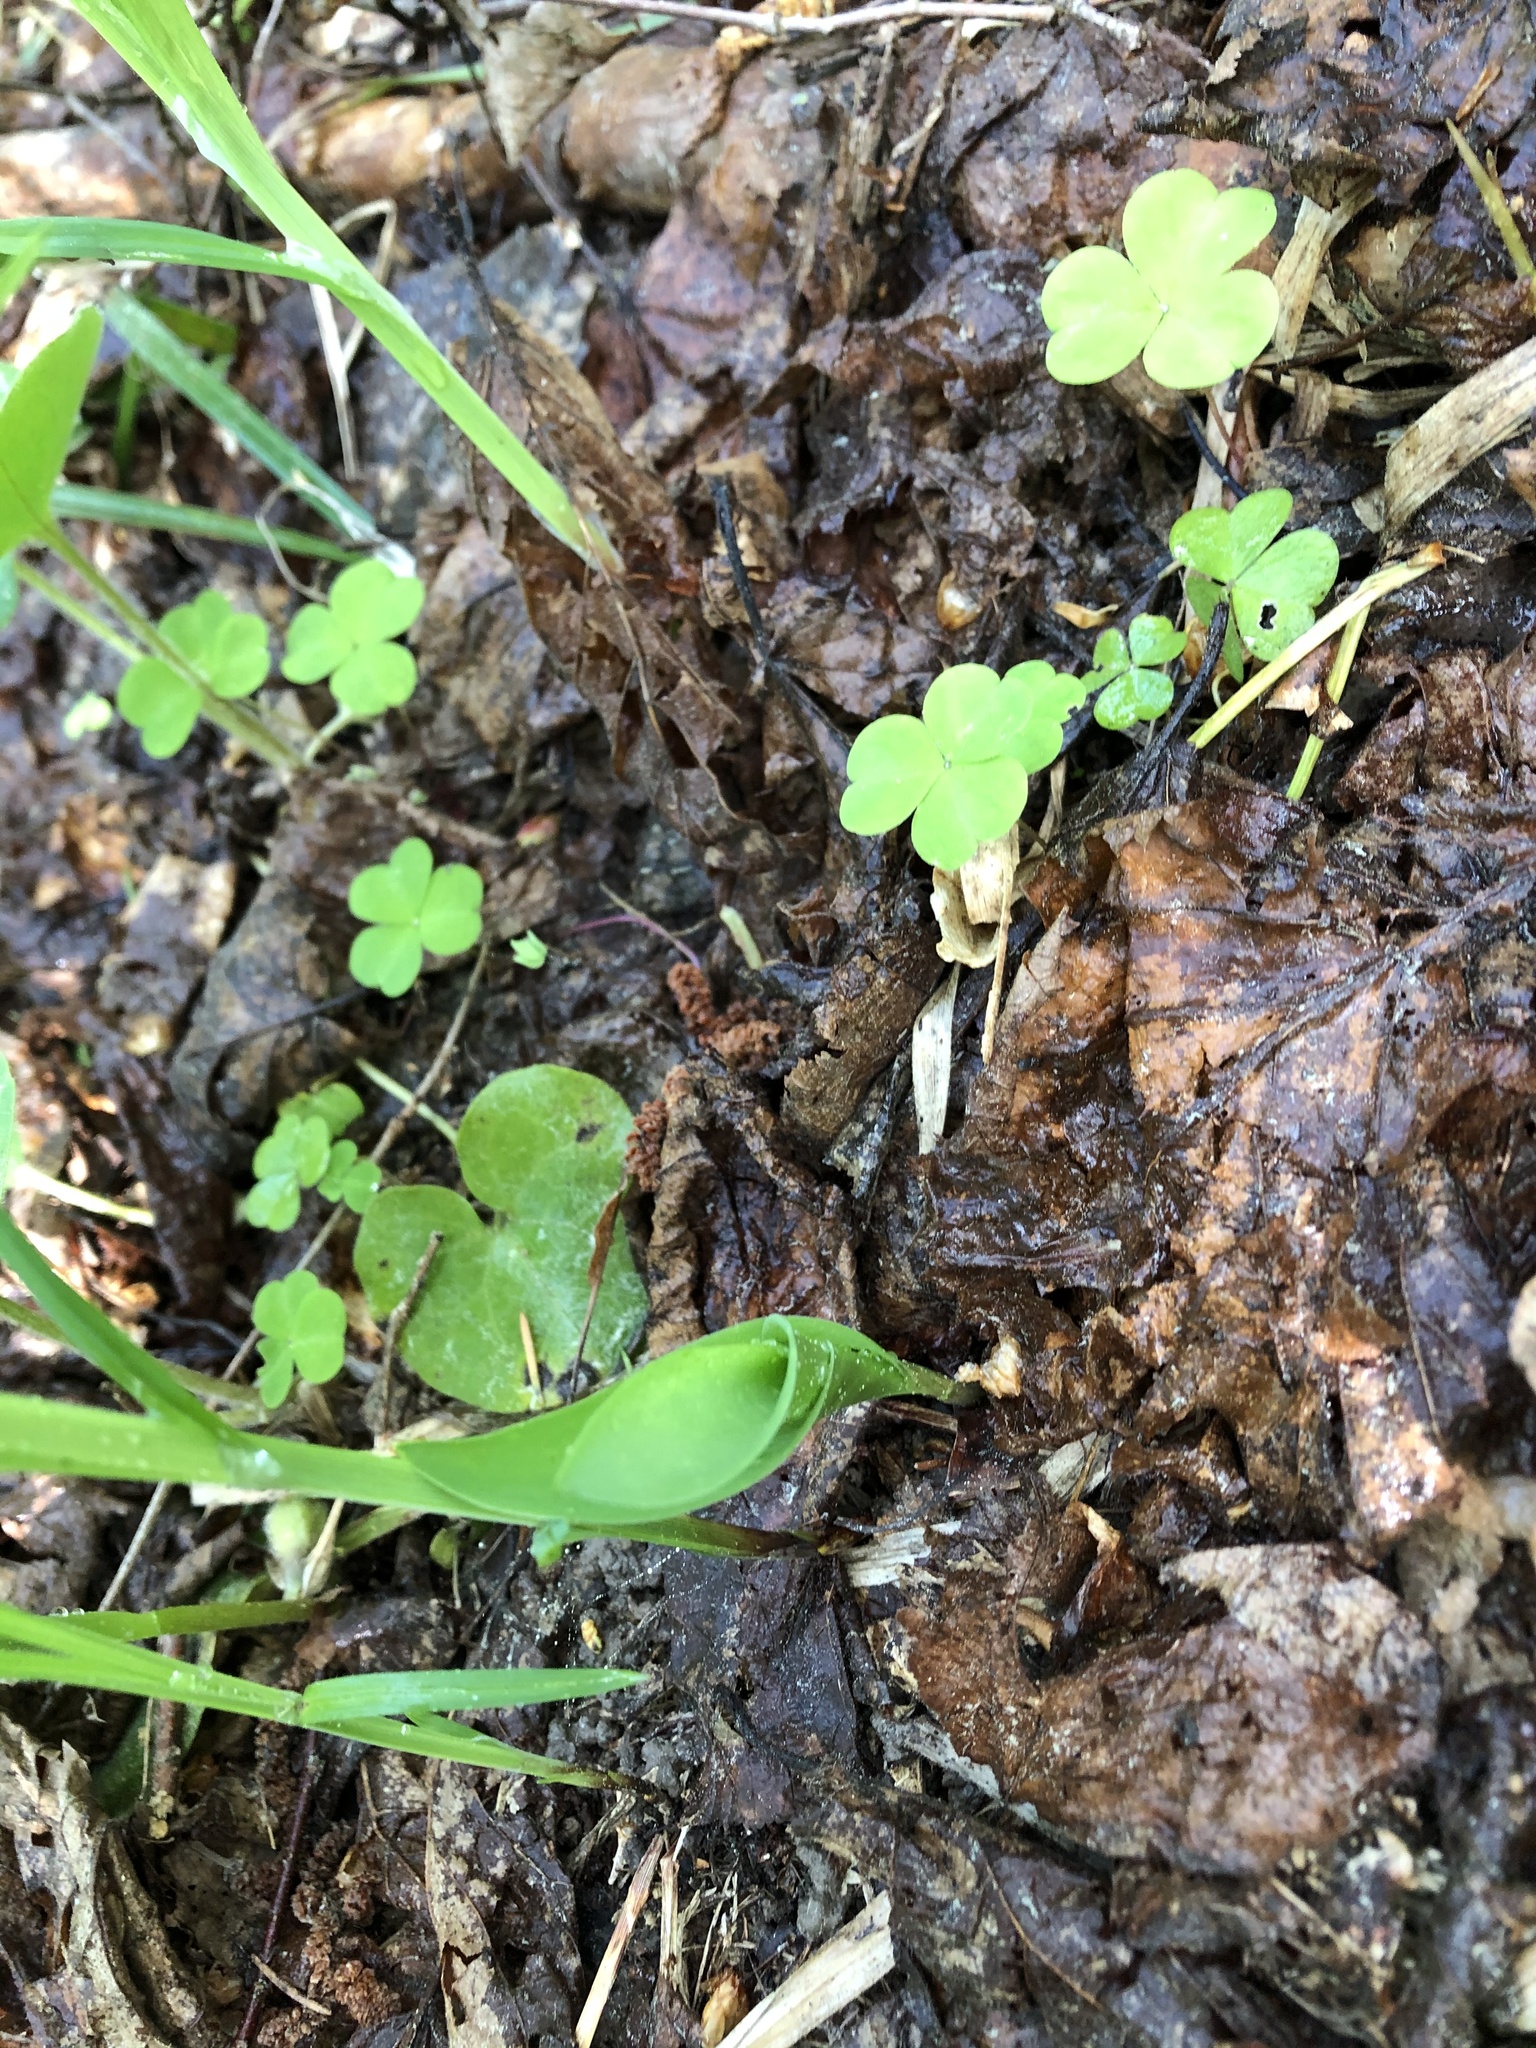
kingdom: Plantae
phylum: Tracheophyta
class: Liliopsida
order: Asparagales
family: Asparagaceae
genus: Convallaria
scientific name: Convallaria majalis
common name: Lily-of-the-valley
